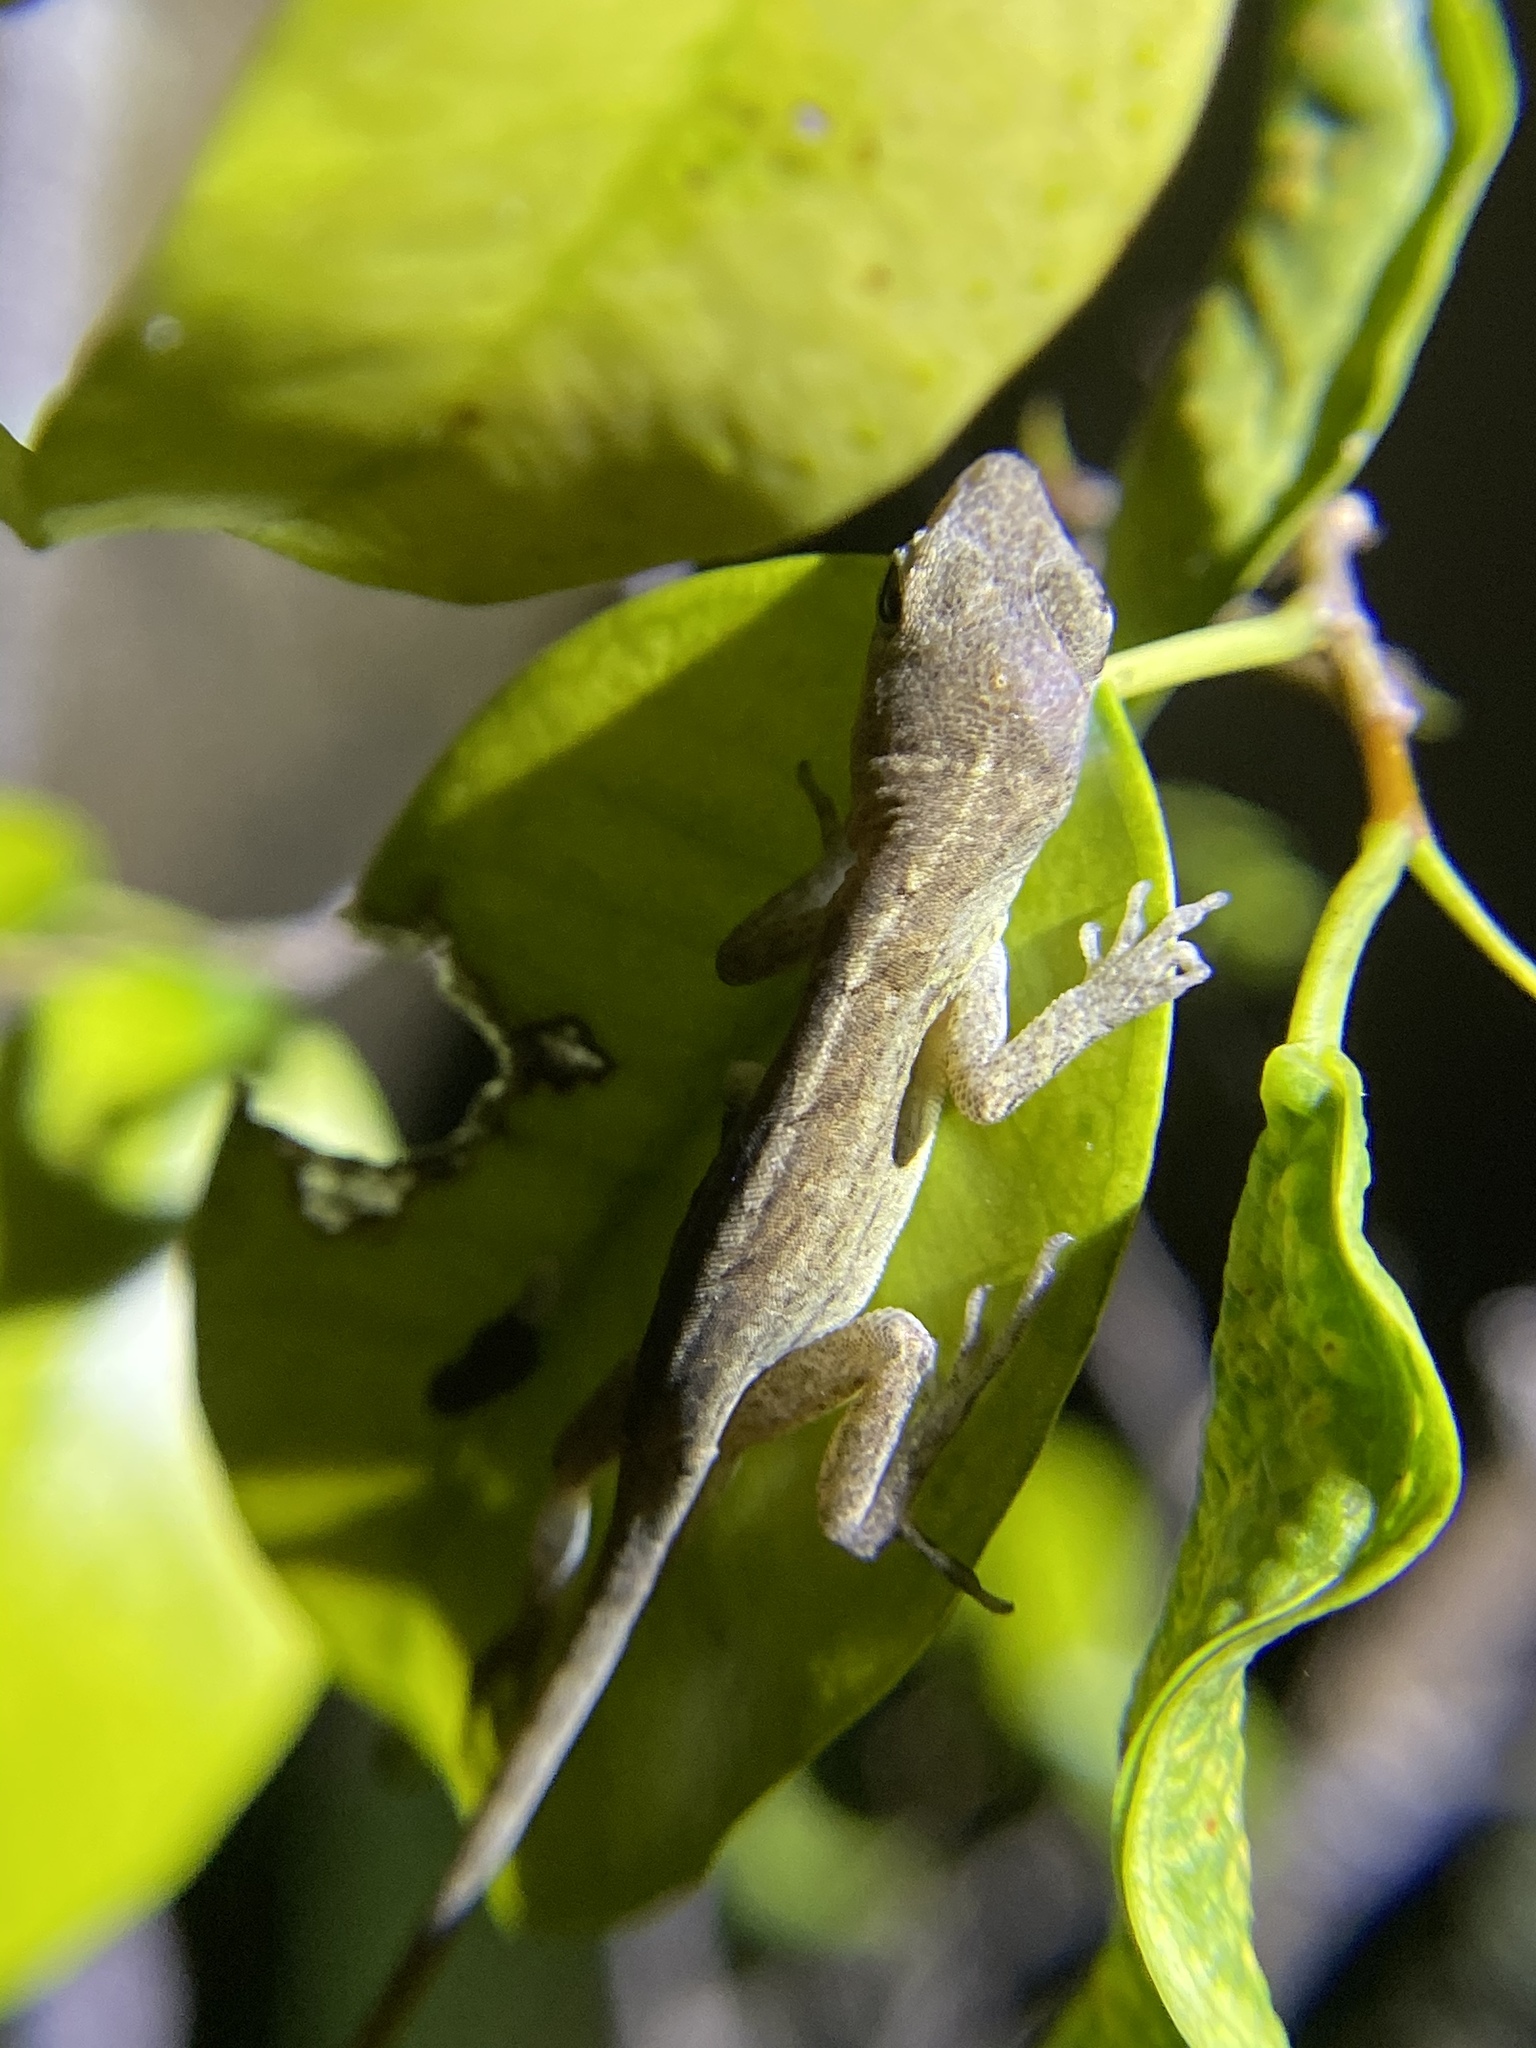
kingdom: Animalia
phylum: Chordata
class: Squamata
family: Dactyloidae
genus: Anolis
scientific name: Anolis sagrei
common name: Brown anole
